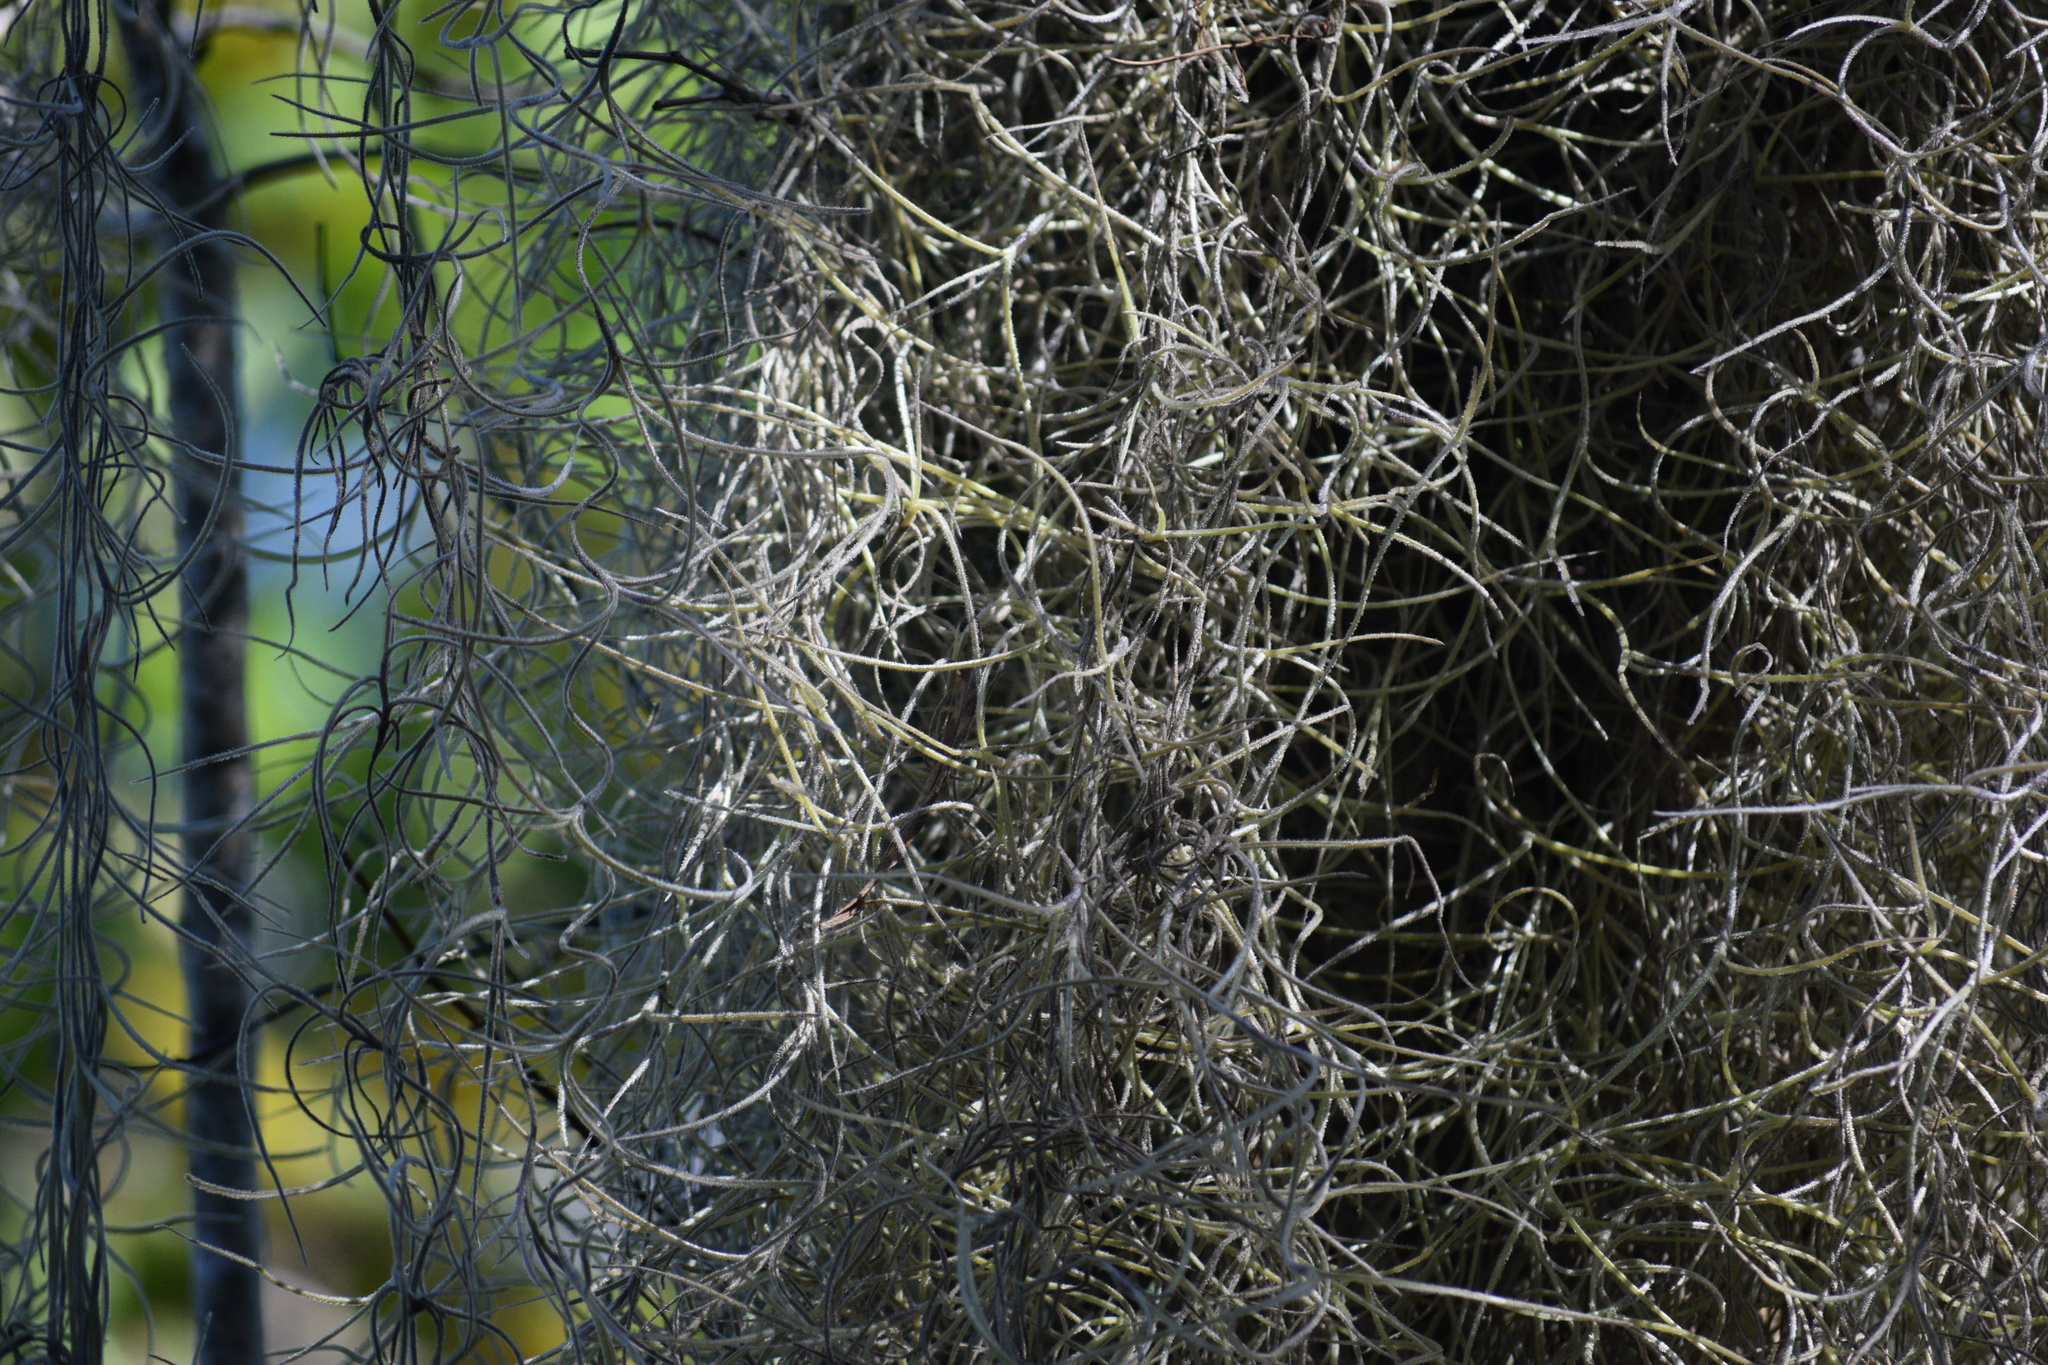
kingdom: Plantae
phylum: Tracheophyta
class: Liliopsida
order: Poales
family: Bromeliaceae
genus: Tillandsia
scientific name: Tillandsia usneoides
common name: Spanish moss
